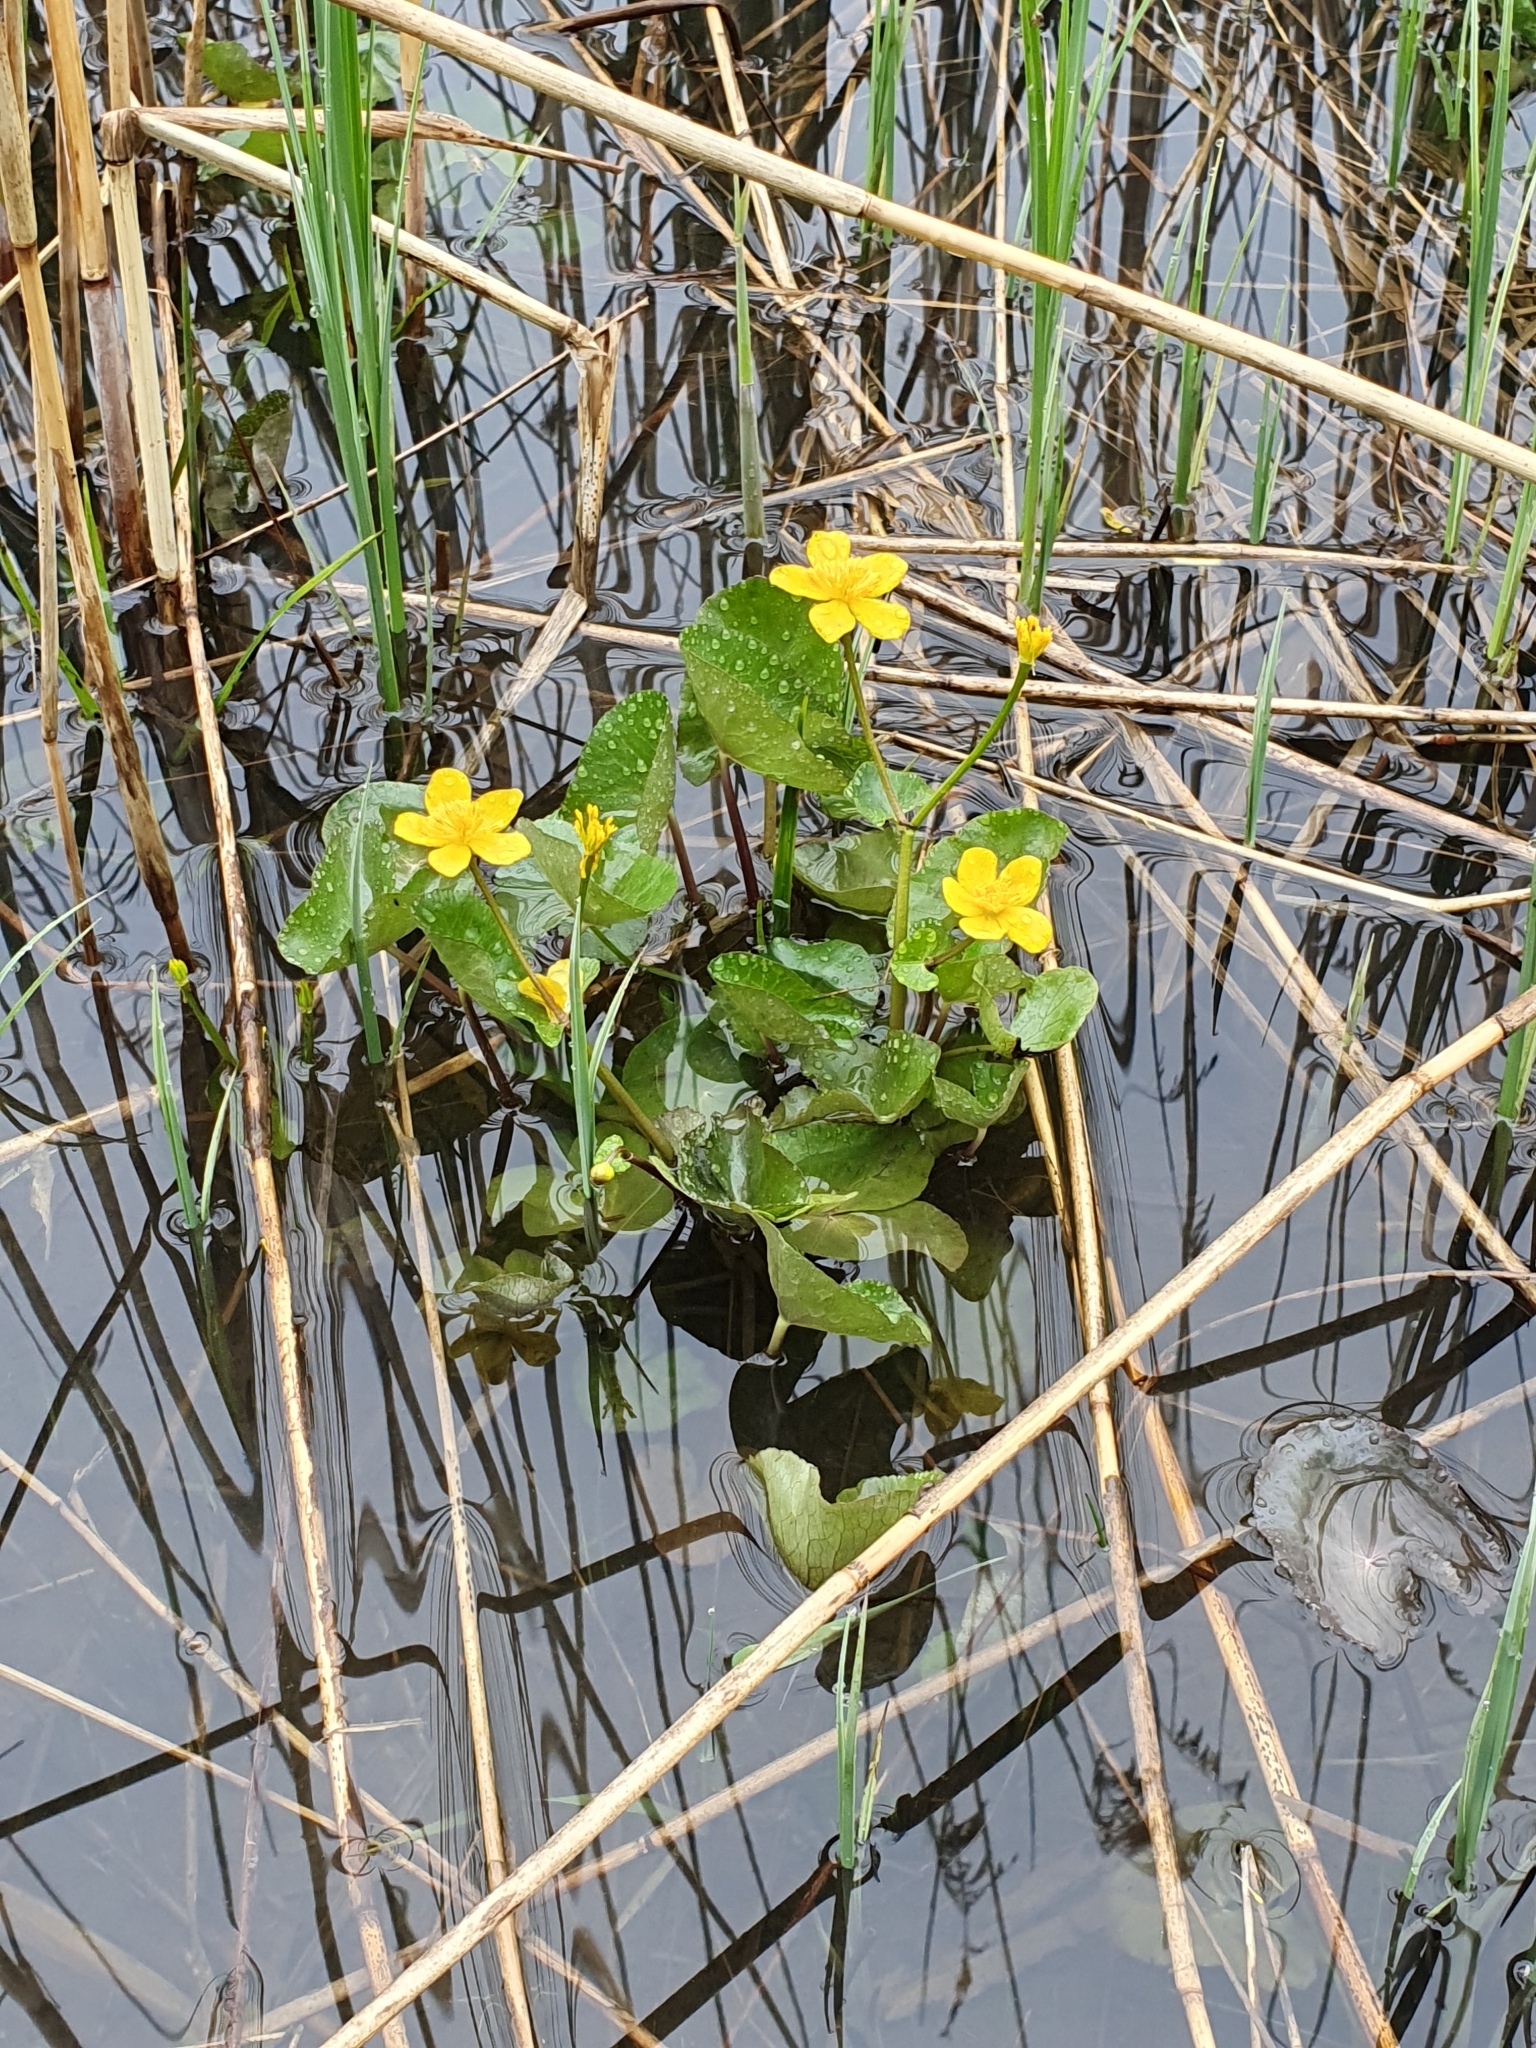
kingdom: Plantae
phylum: Tracheophyta
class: Magnoliopsida
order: Ranunculales
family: Ranunculaceae
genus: Caltha
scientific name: Caltha palustris
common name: Marsh marigold
